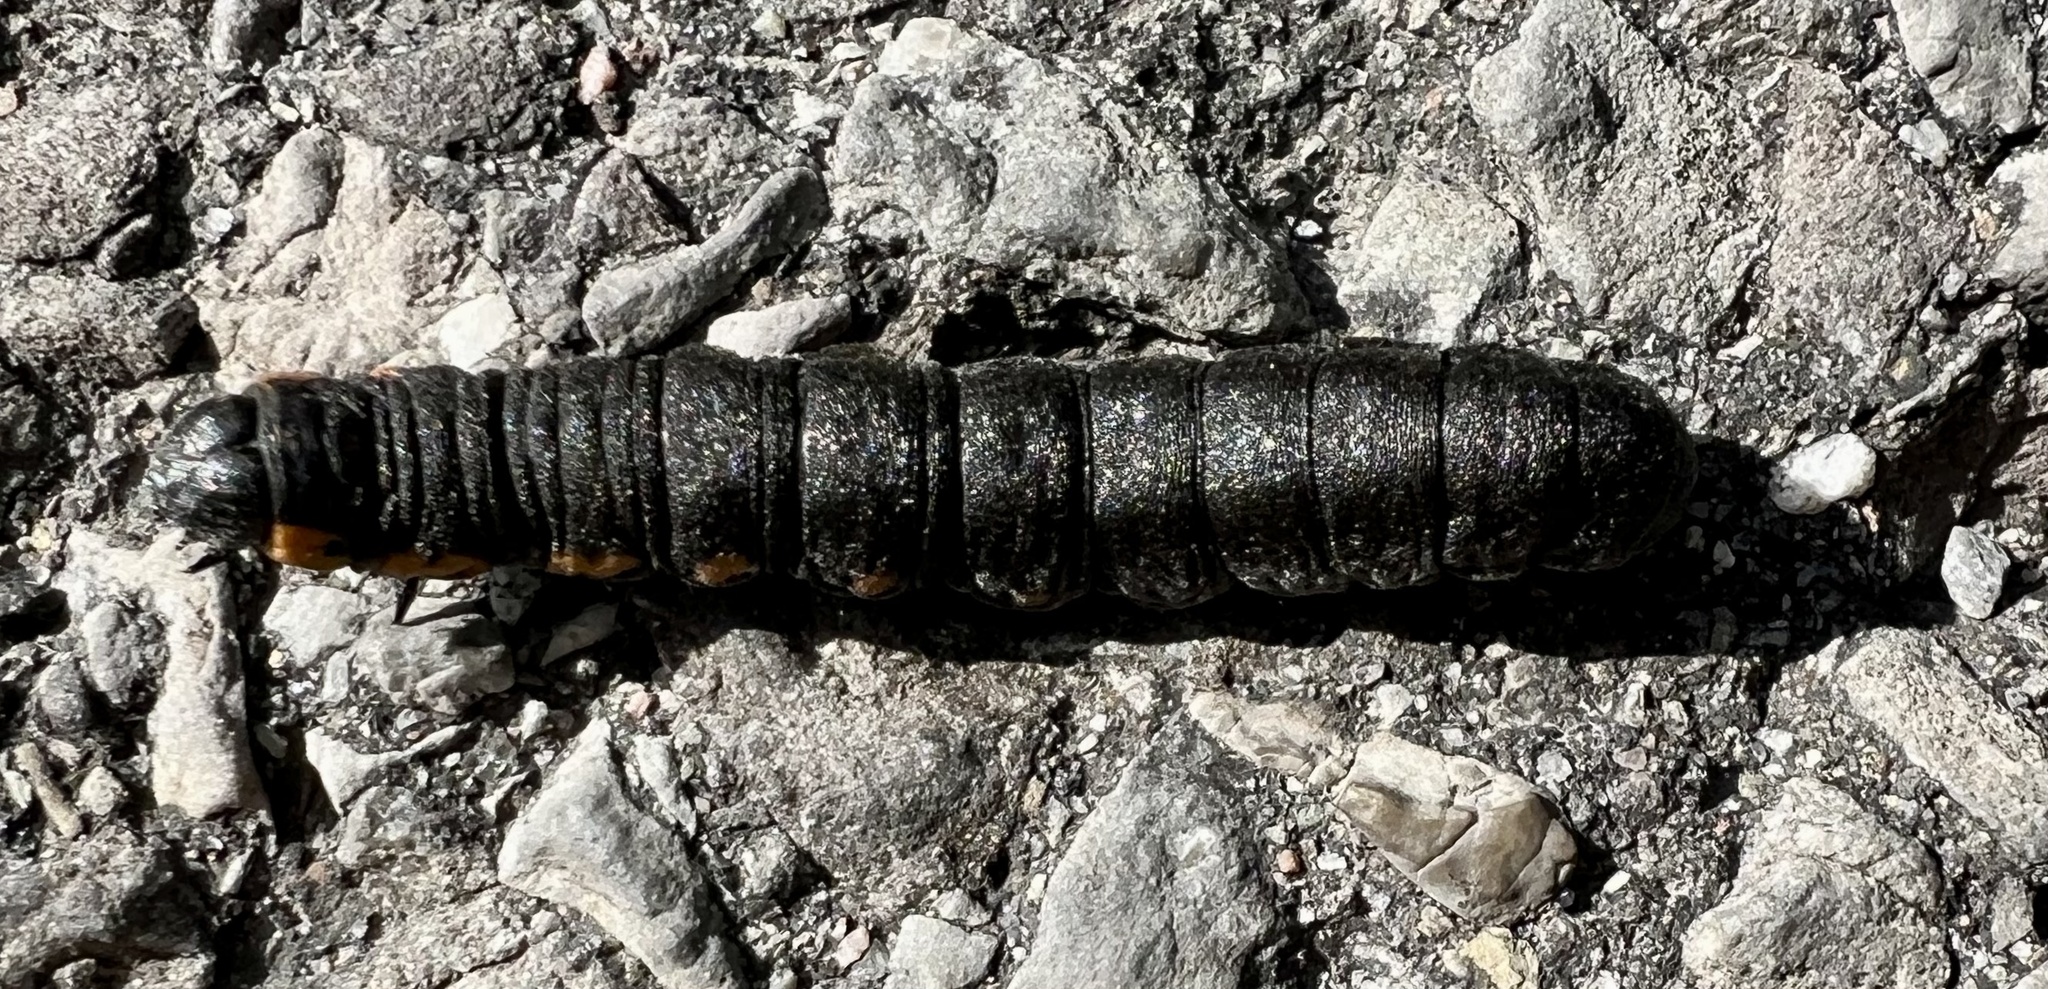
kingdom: Animalia
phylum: Arthropoda
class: Insecta
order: Lepidoptera
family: Noctuidae
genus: Cucullia
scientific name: Cucullia intermedia
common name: Goldenrod cutworm
